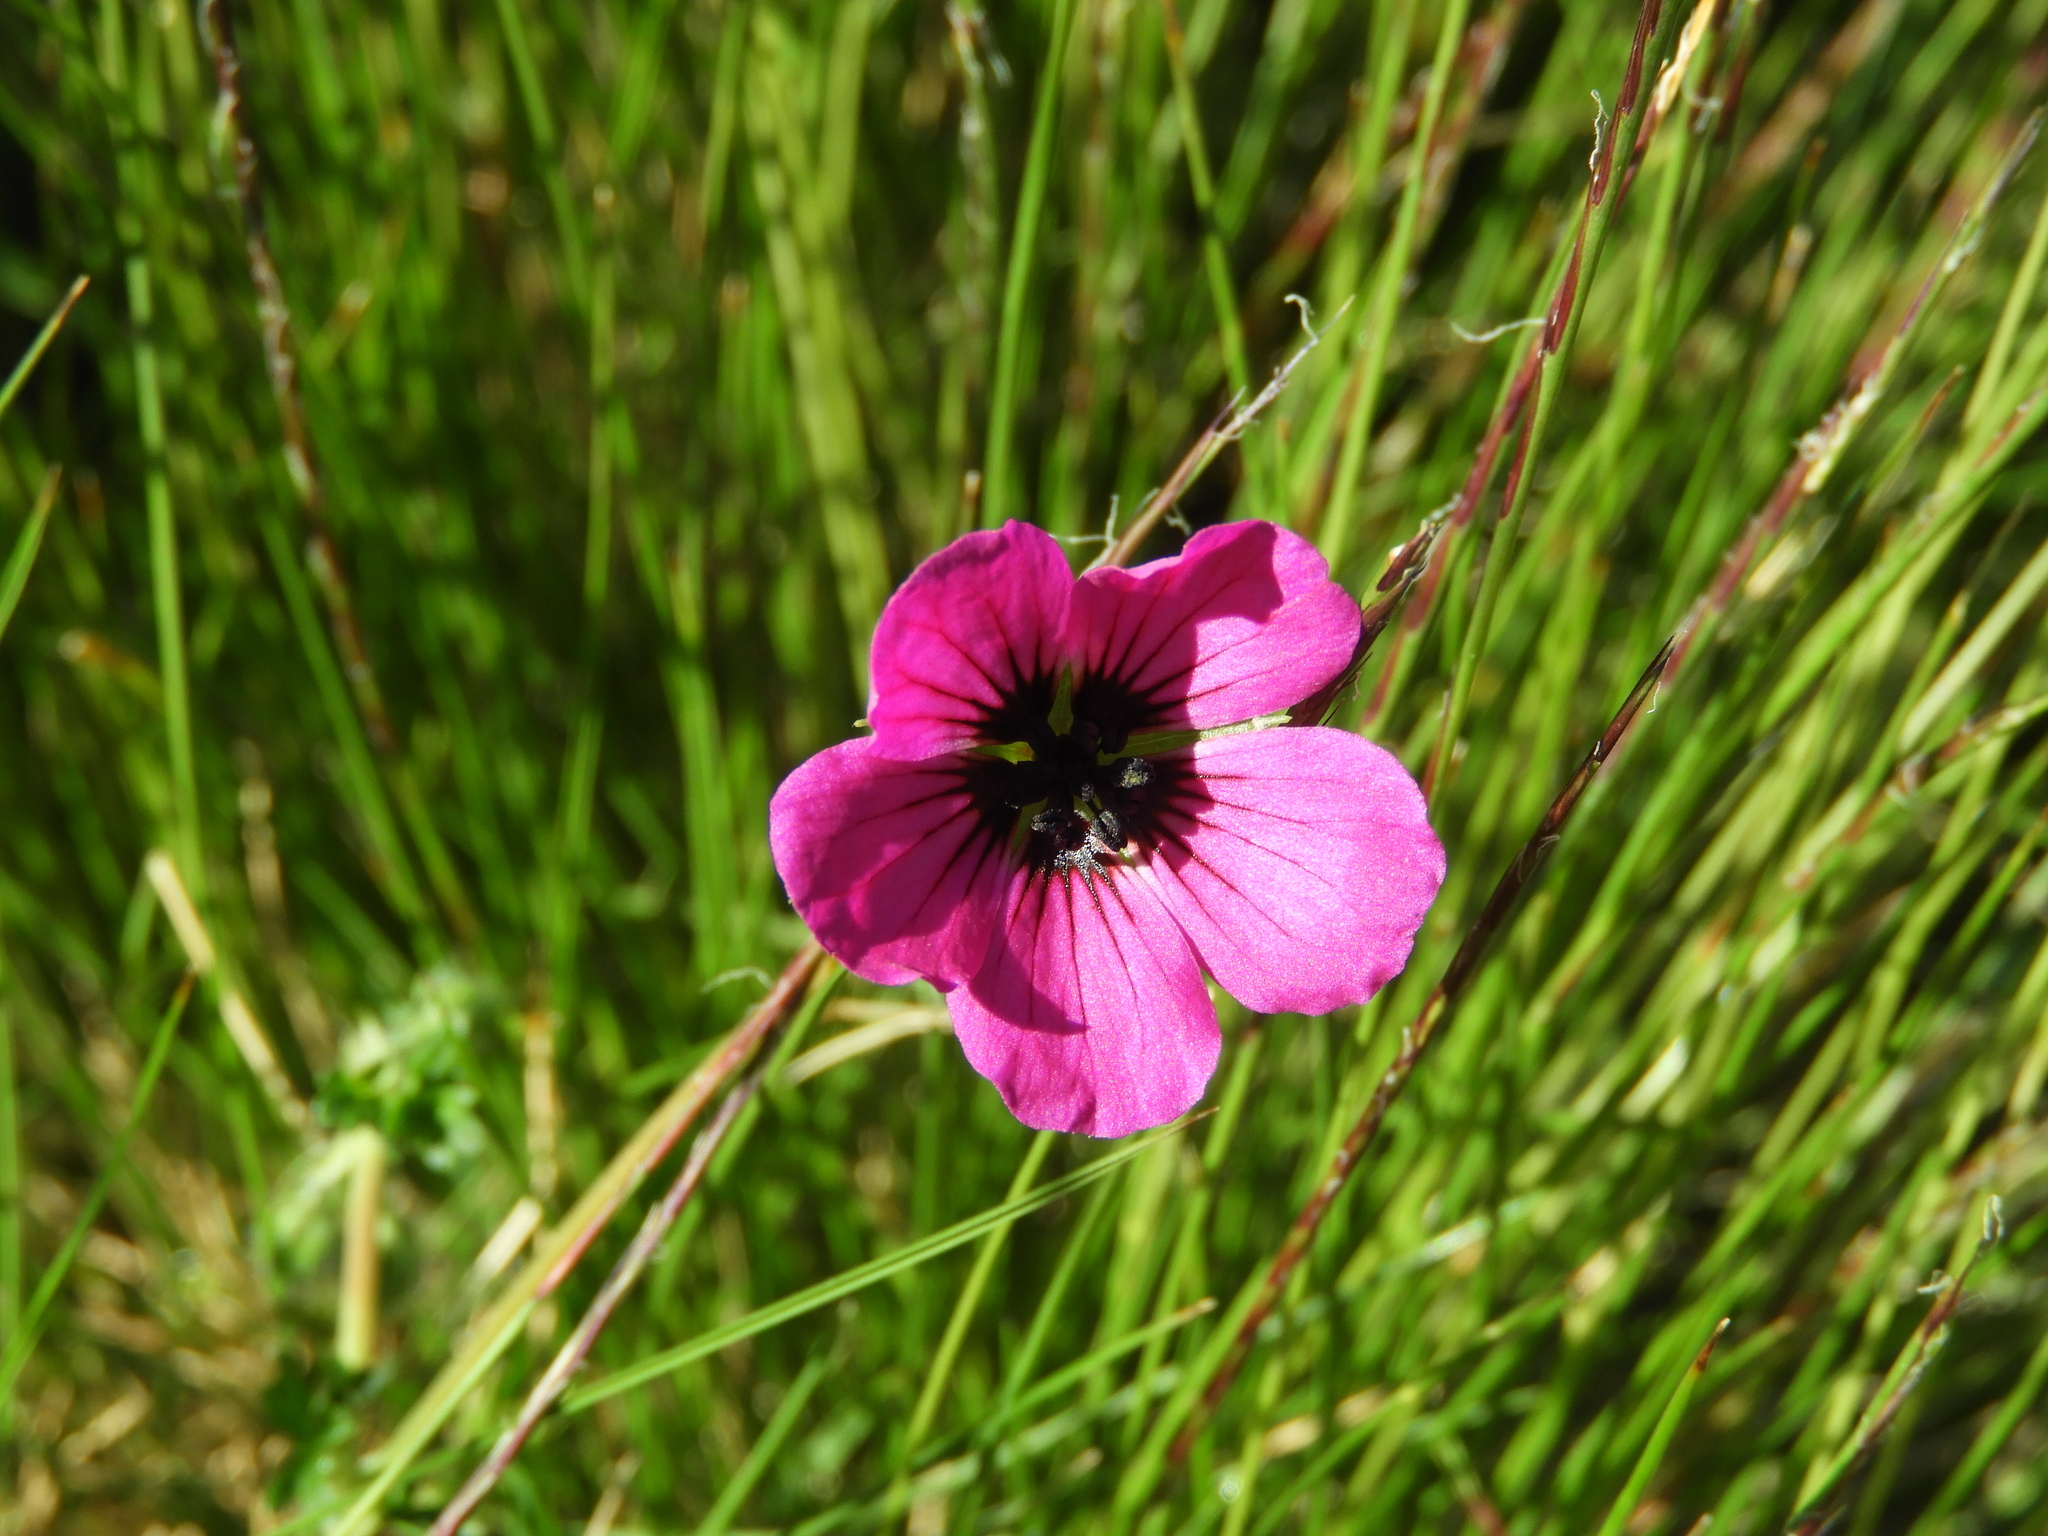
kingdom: Plantae
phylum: Tracheophyta
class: Magnoliopsida
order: Geraniales
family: Geraniaceae
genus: Geranium
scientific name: Geranium subcaulescens
